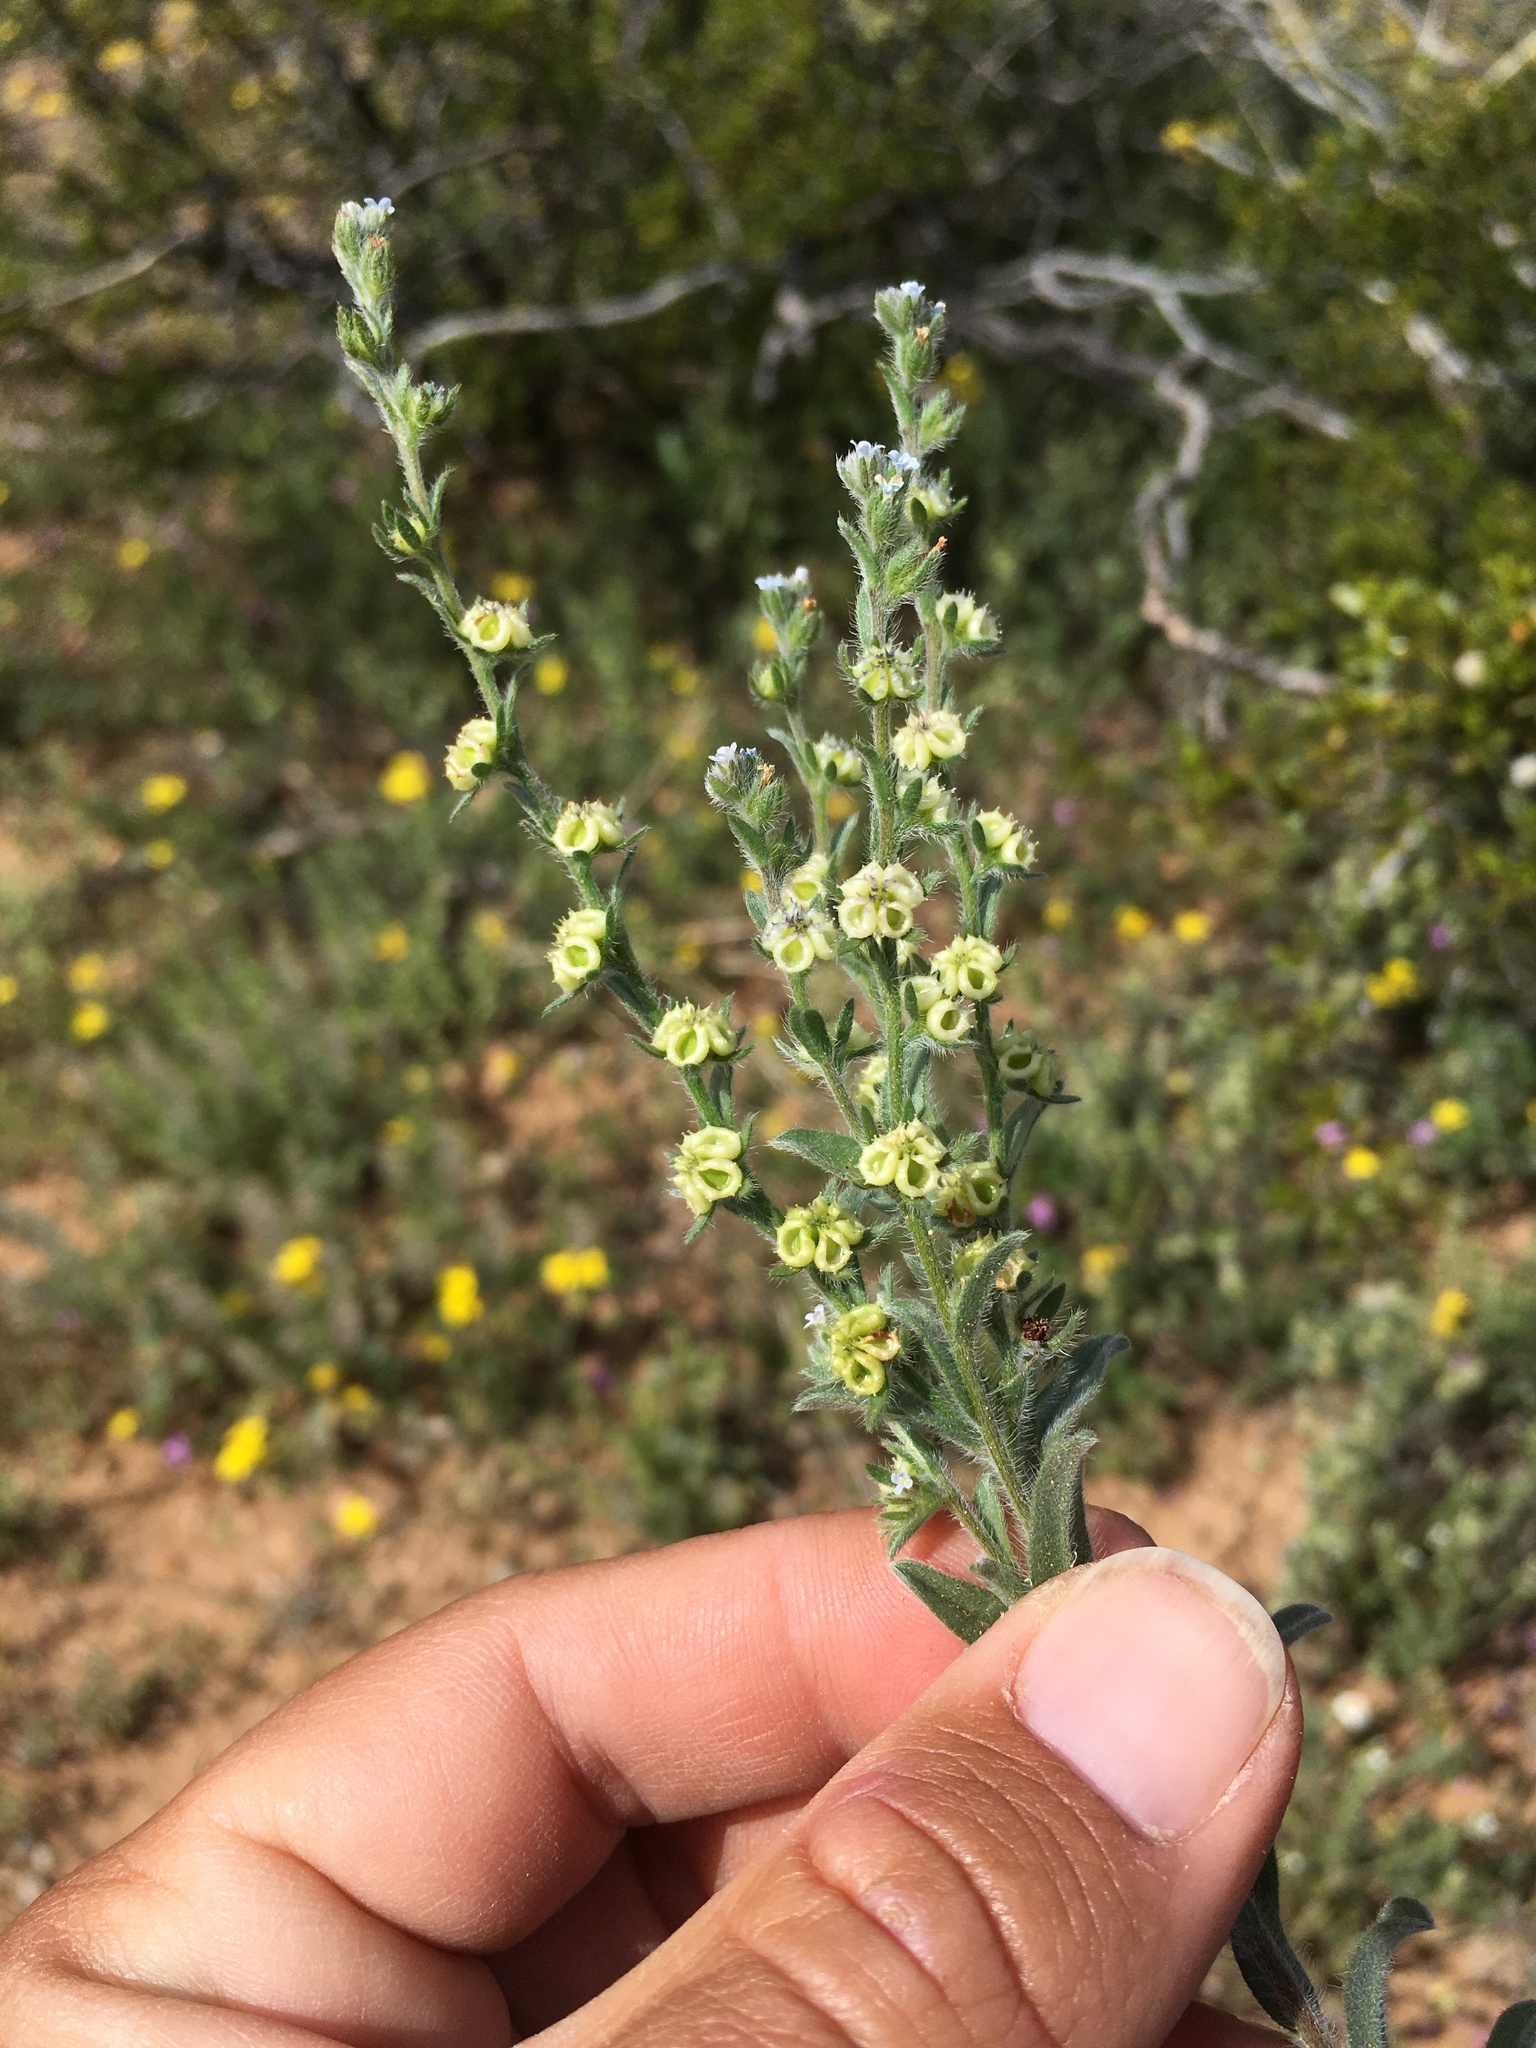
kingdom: Plantae
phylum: Tracheophyta
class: Magnoliopsida
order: Boraginales
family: Boraginaceae
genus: Lappula
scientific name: Lappula occidentalis
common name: Western stickseed
